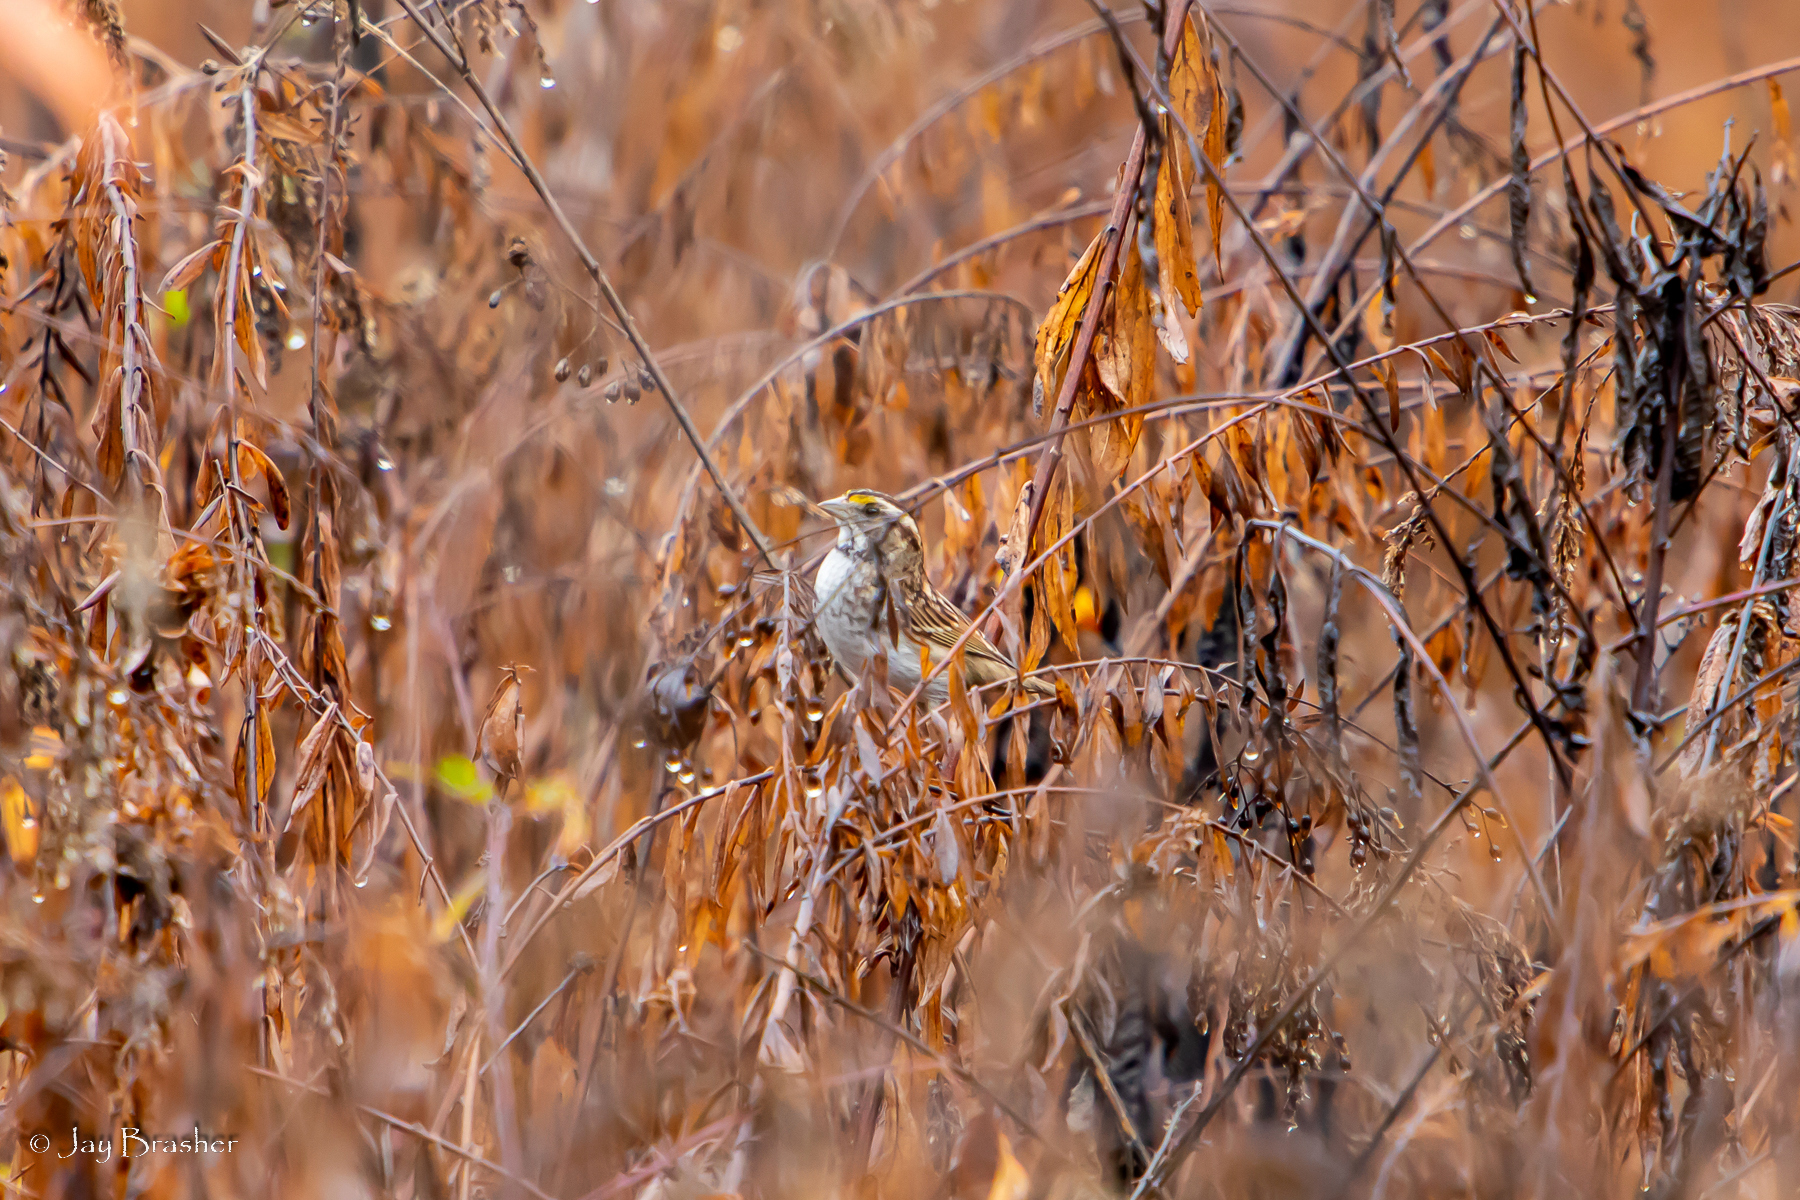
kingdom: Animalia
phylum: Chordata
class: Aves
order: Passeriformes
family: Passerellidae
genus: Zonotrichia
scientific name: Zonotrichia albicollis
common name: White-throated sparrow
